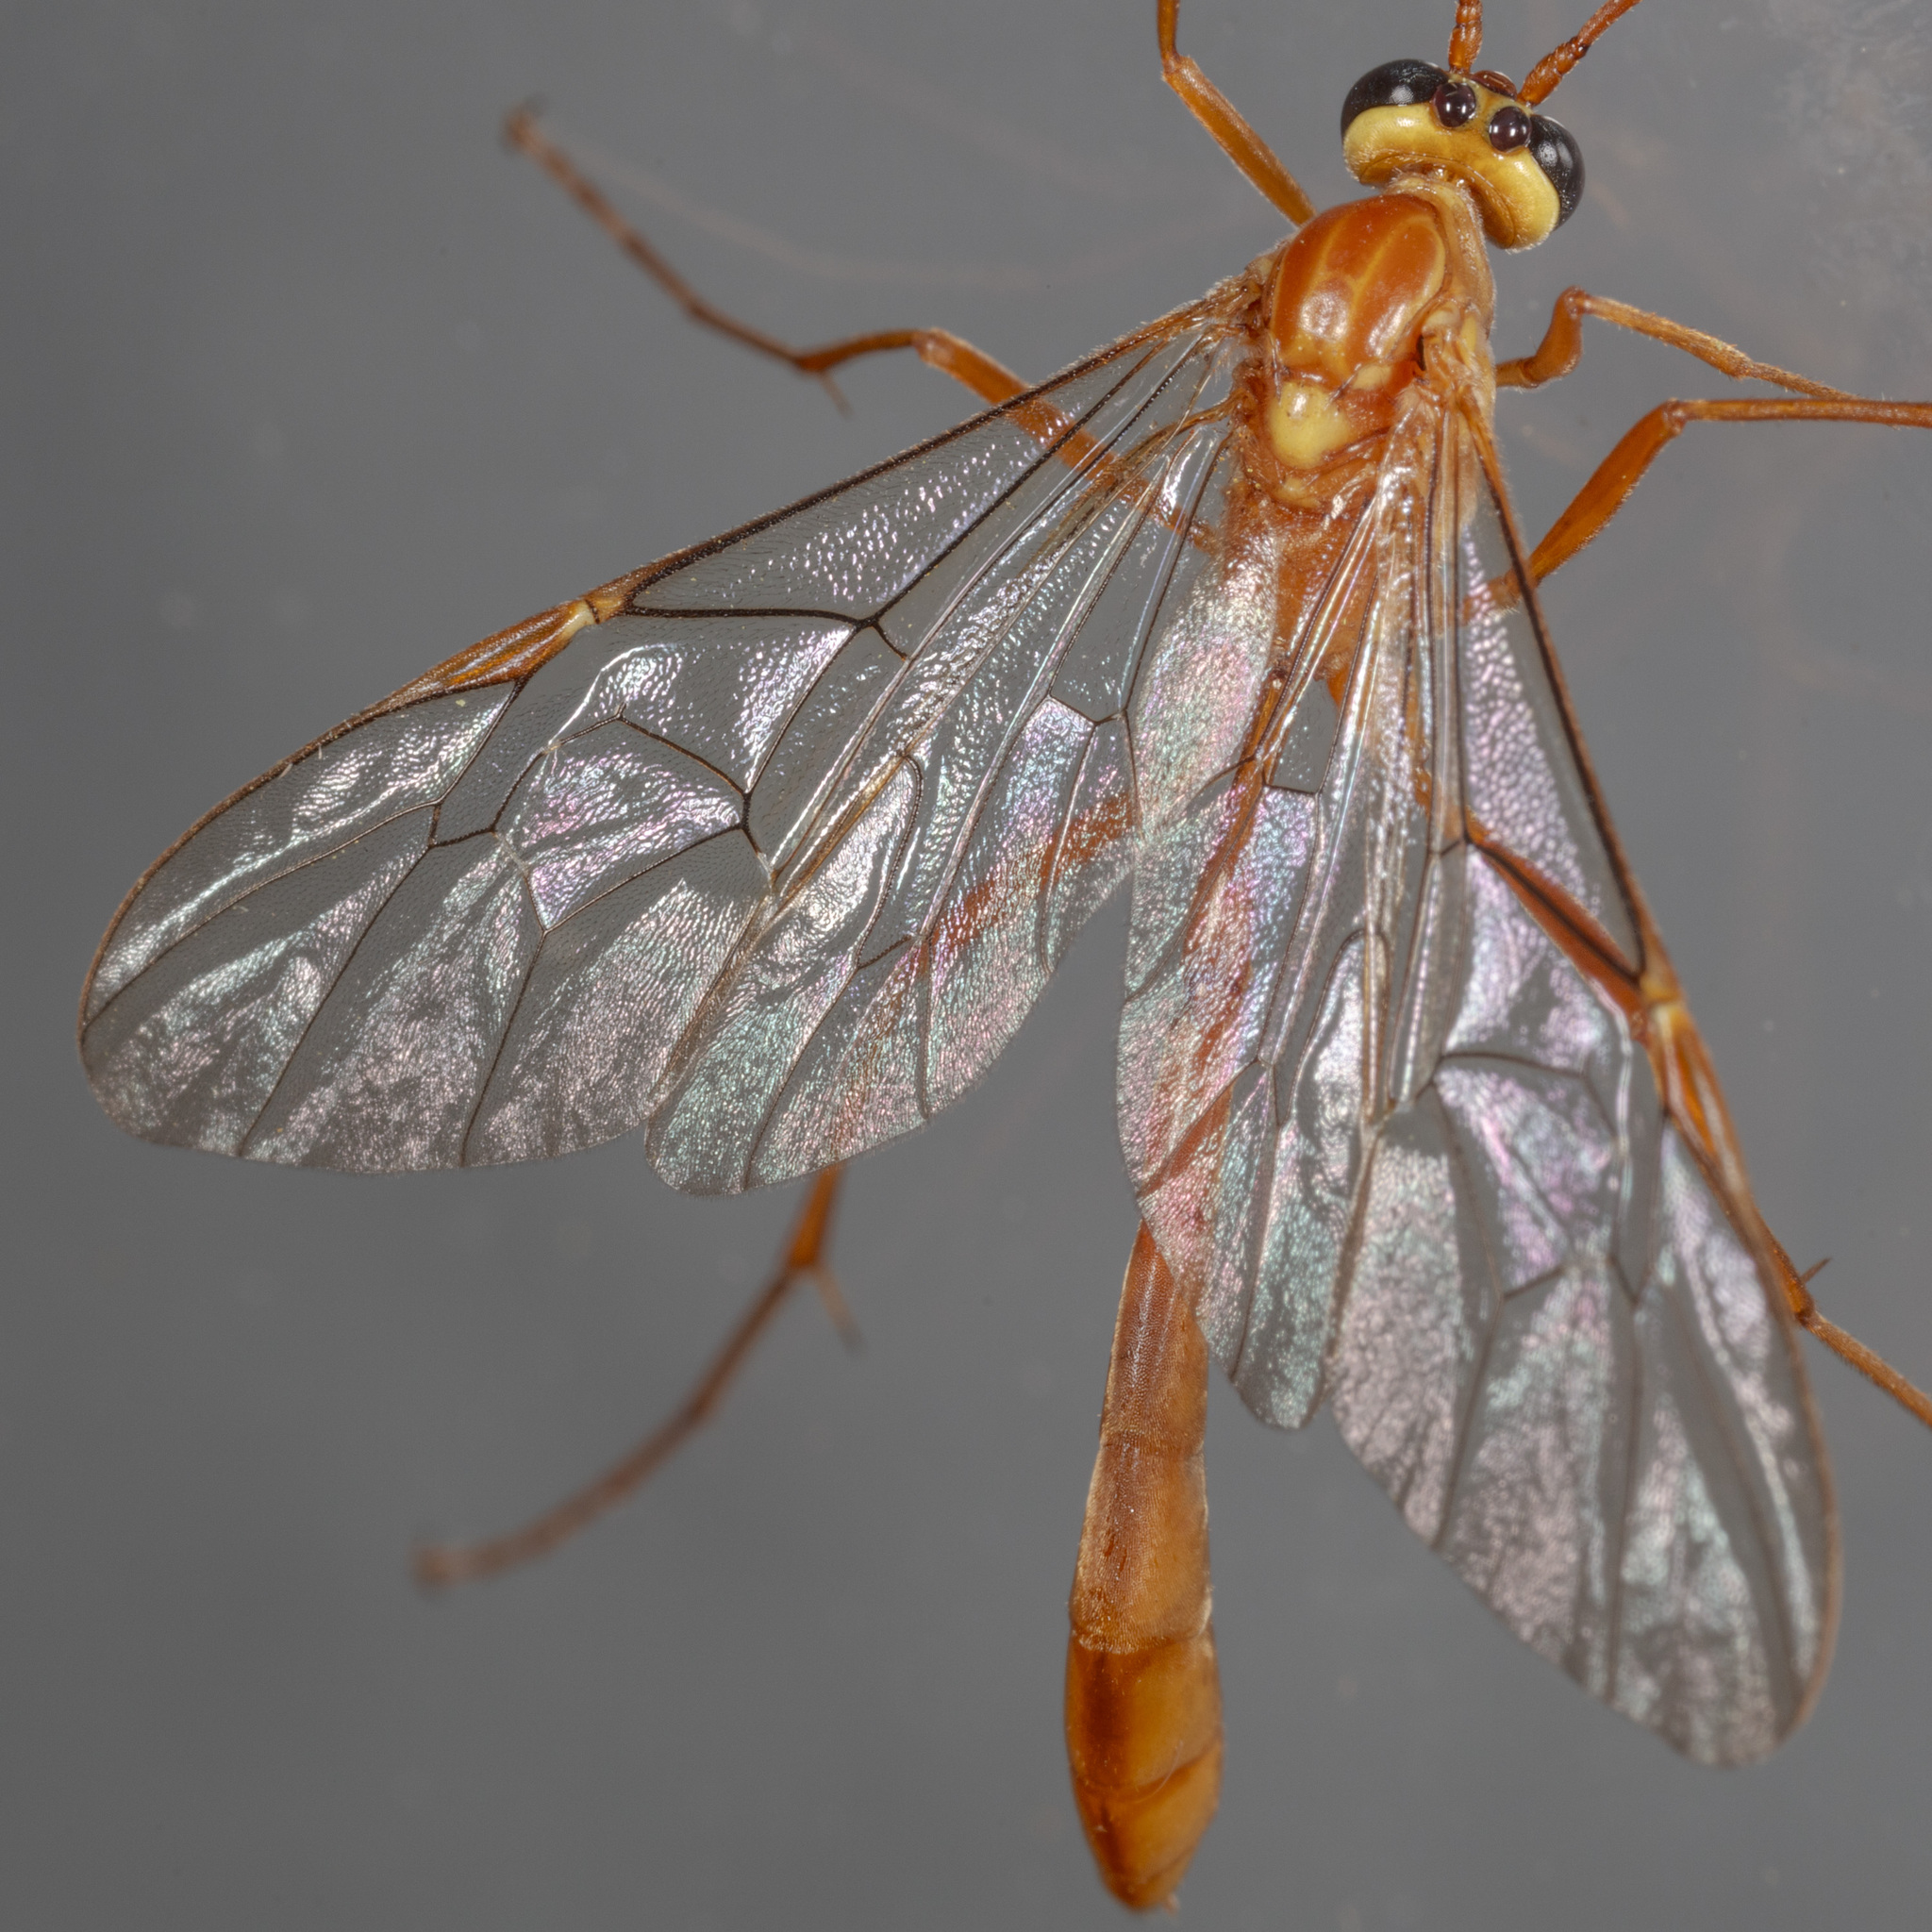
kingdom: Animalia
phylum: Arthropoda
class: Insecta
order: Hymenoptera
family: Ichneumonidae
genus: Ophion
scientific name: Ophion
